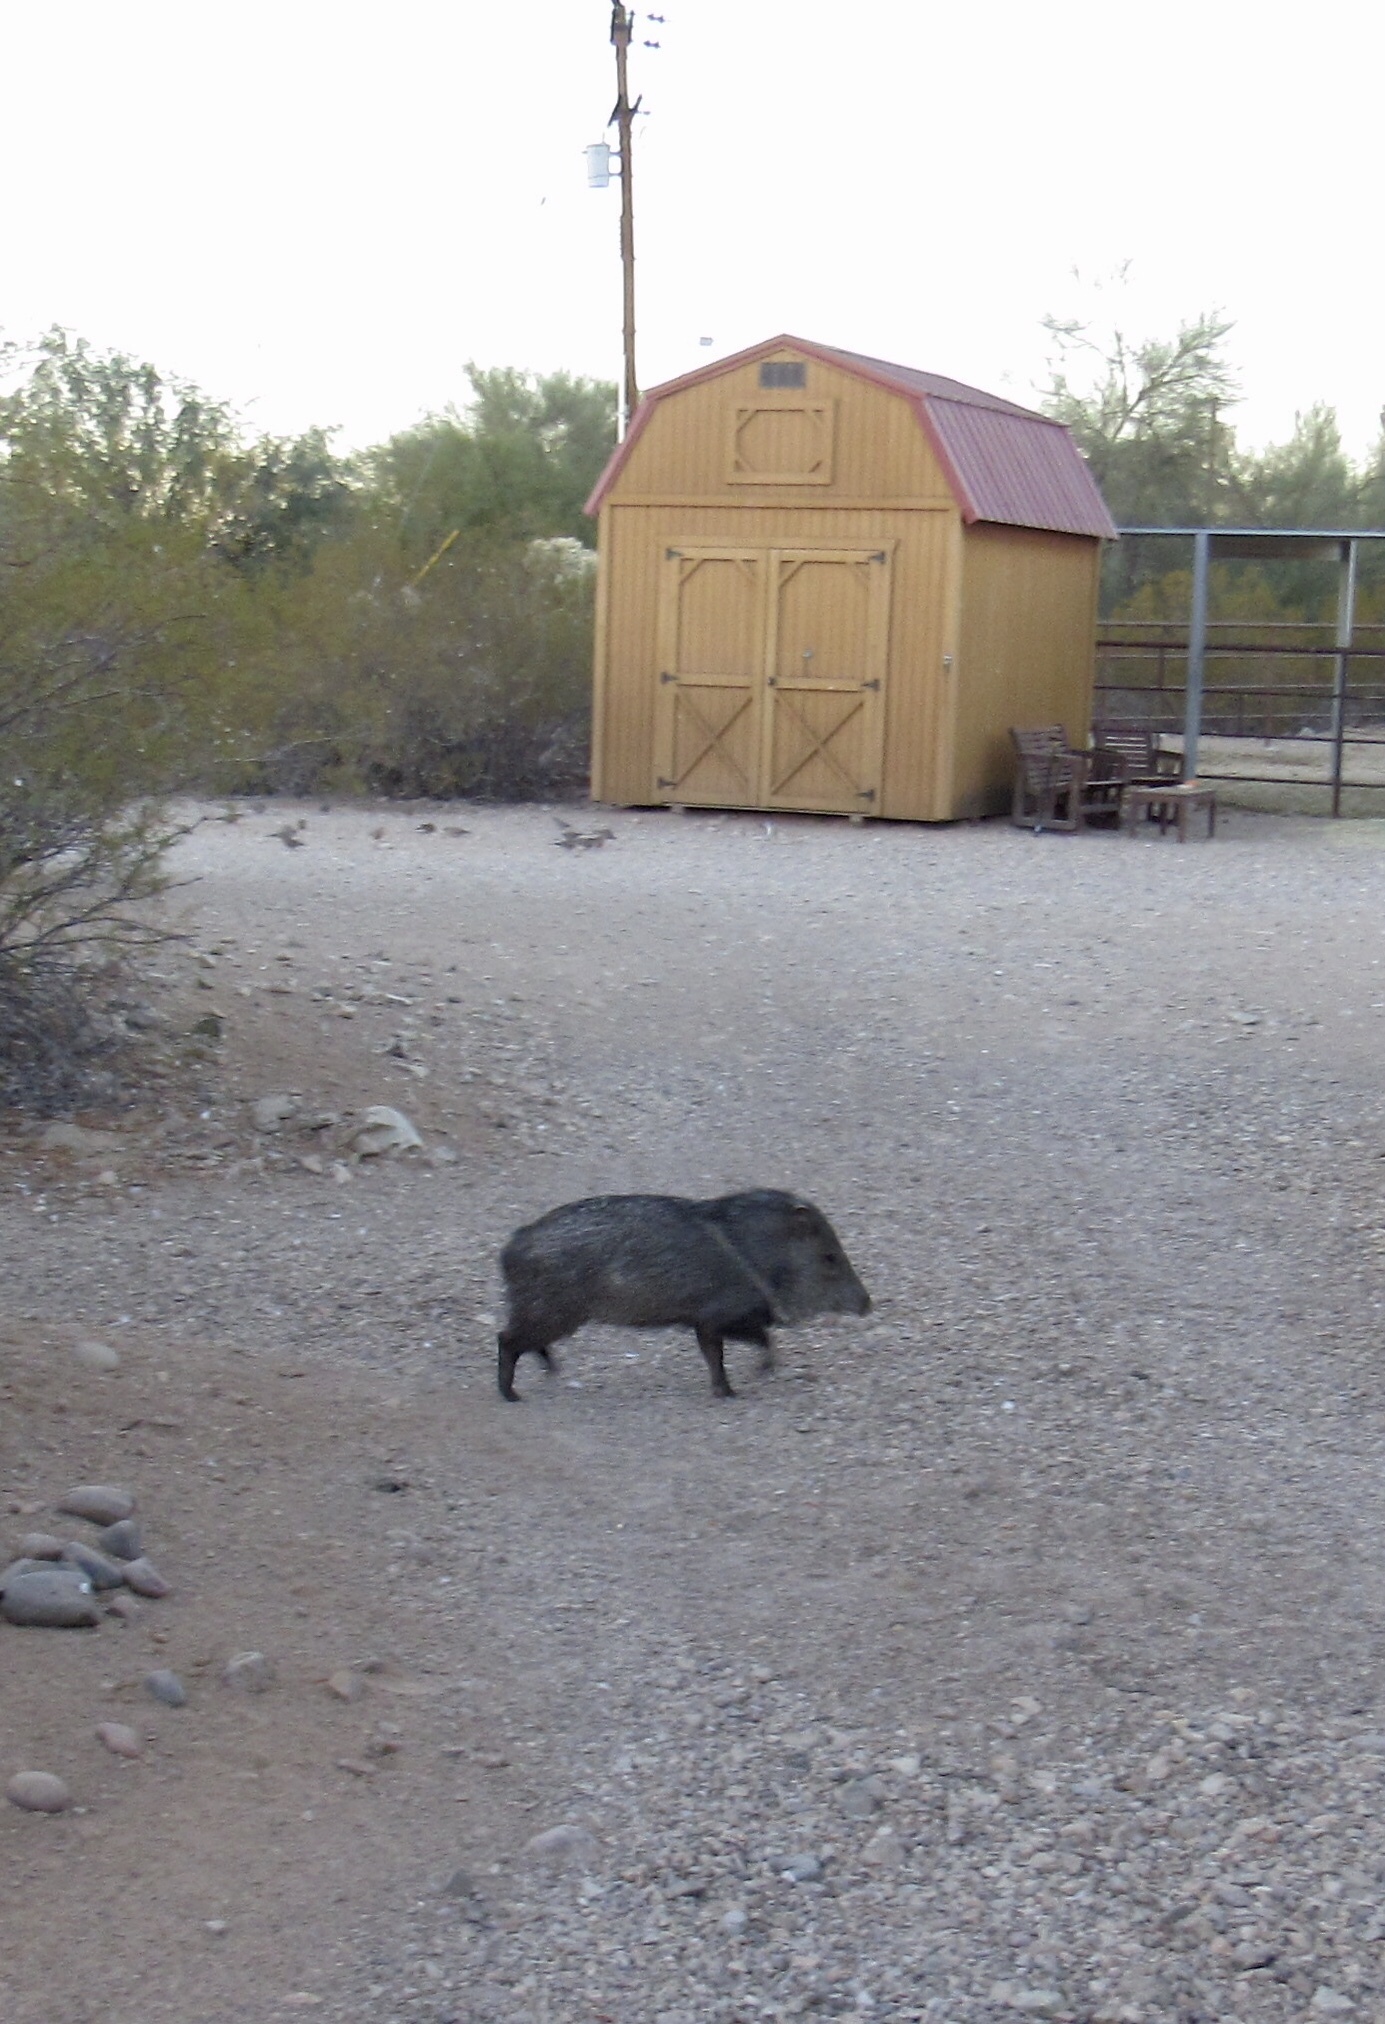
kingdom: Animalia
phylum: Chordata
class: Mammalia
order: Artiodactyla
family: Tayassuidae
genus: Pecari
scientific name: Pecari tajacu
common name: Collared peccary
